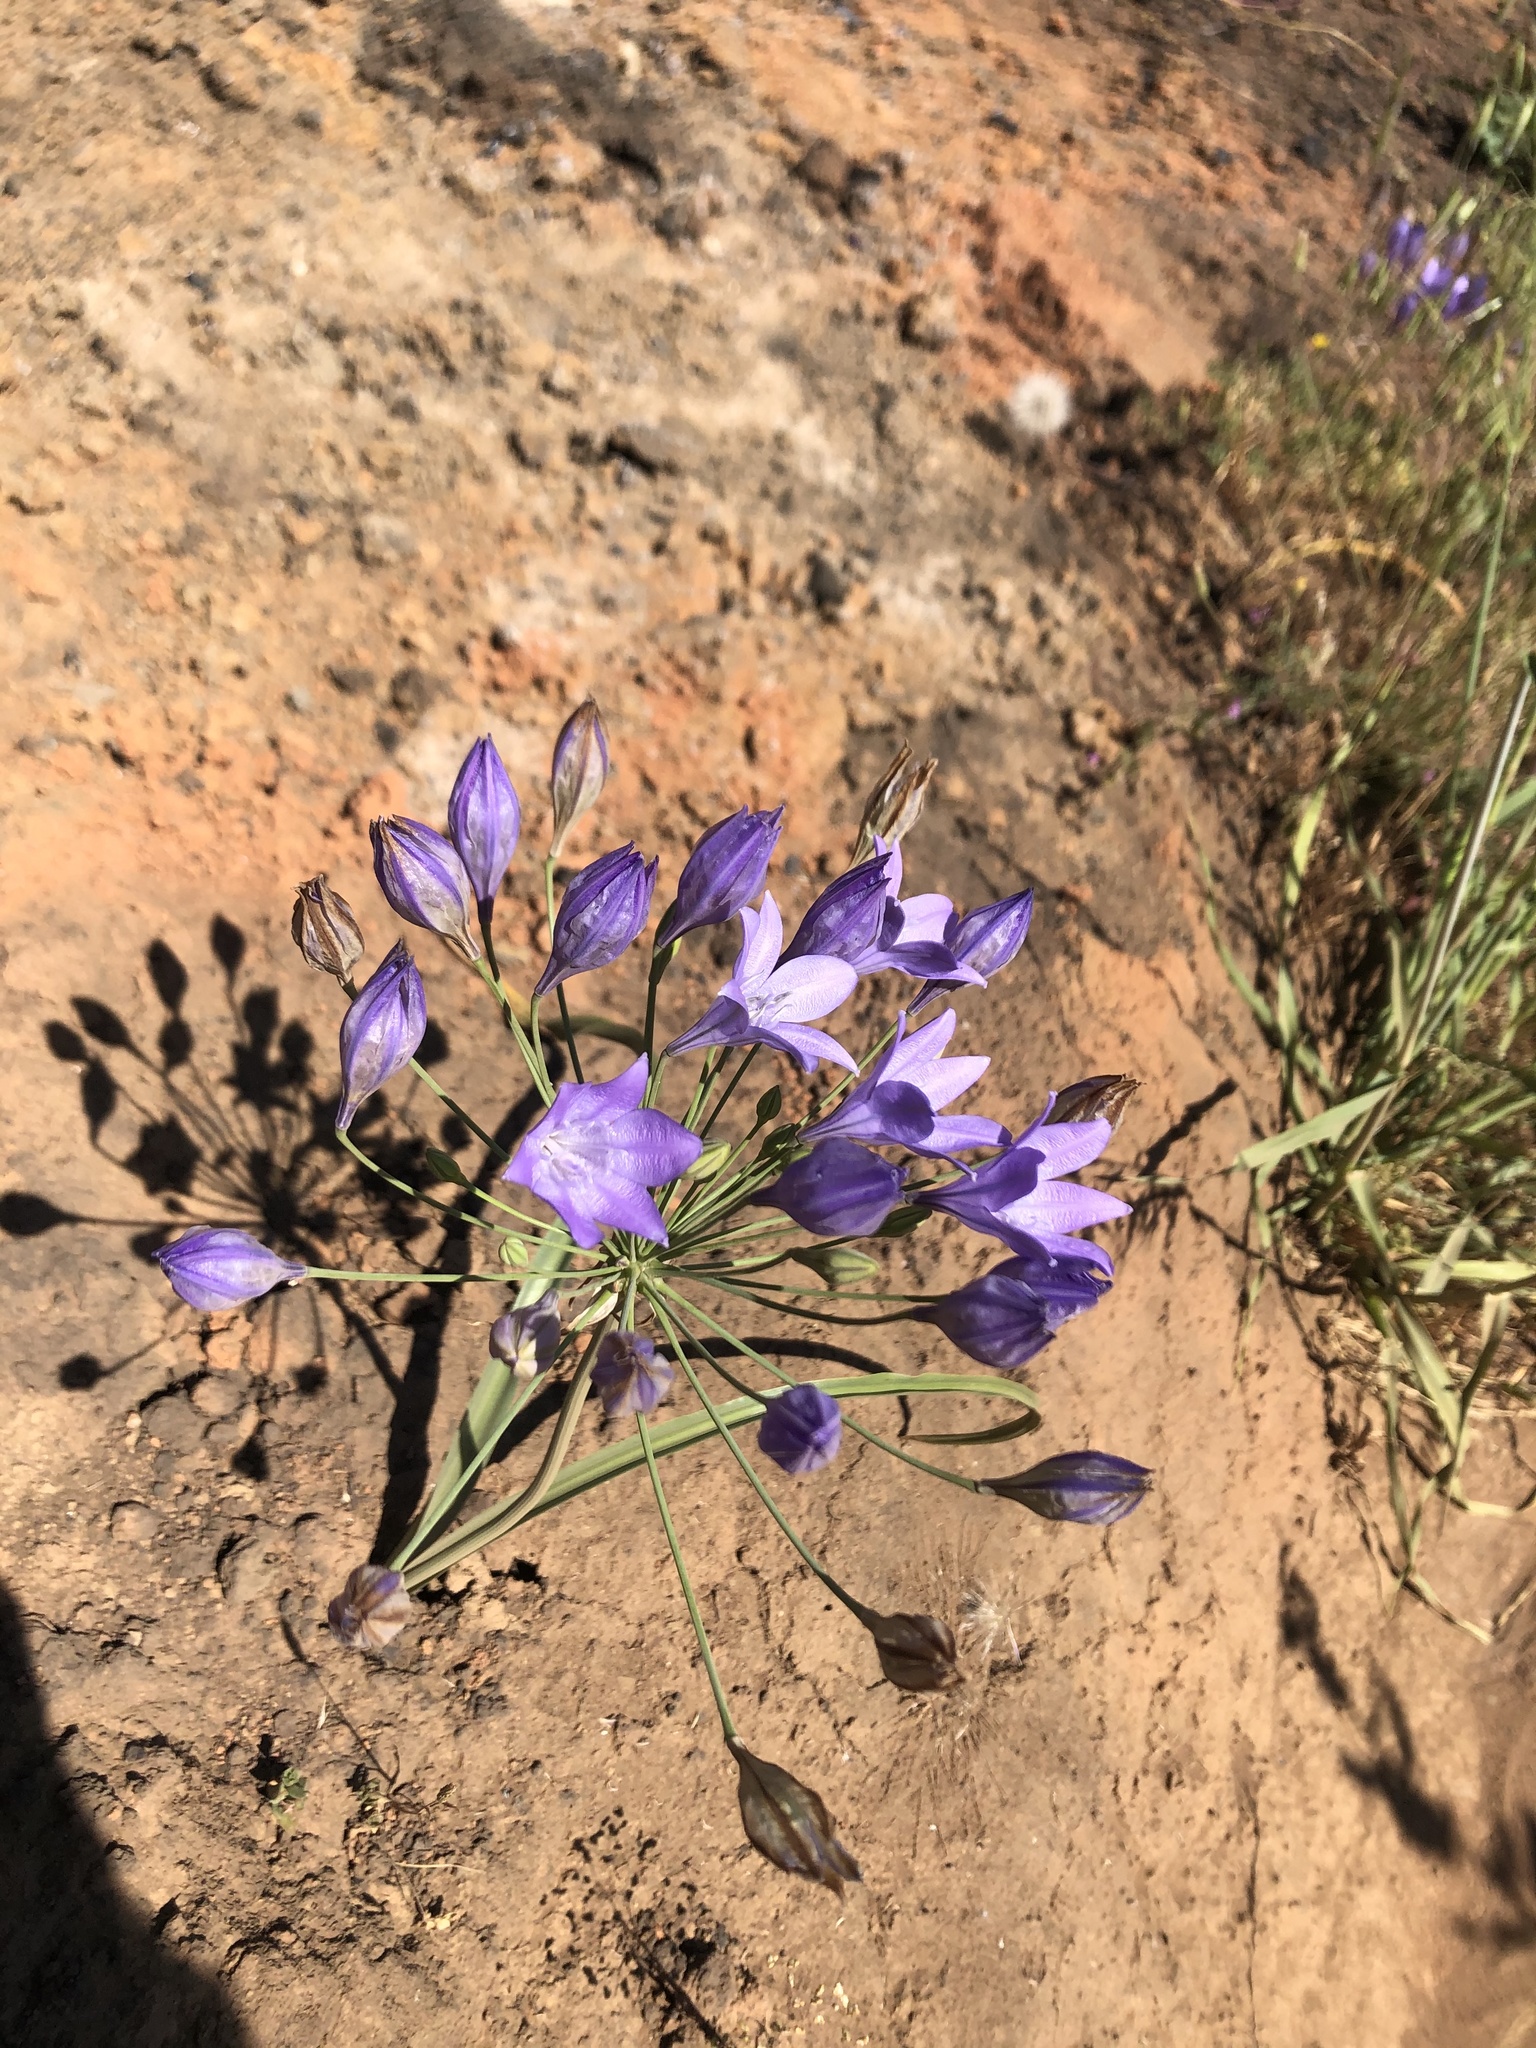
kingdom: Plantae
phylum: Tracheophyta
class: Liliopsida
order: Asparagales
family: Asparagaceae
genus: Triteleia
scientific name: Triteleia laxa
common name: Triplet-lily
